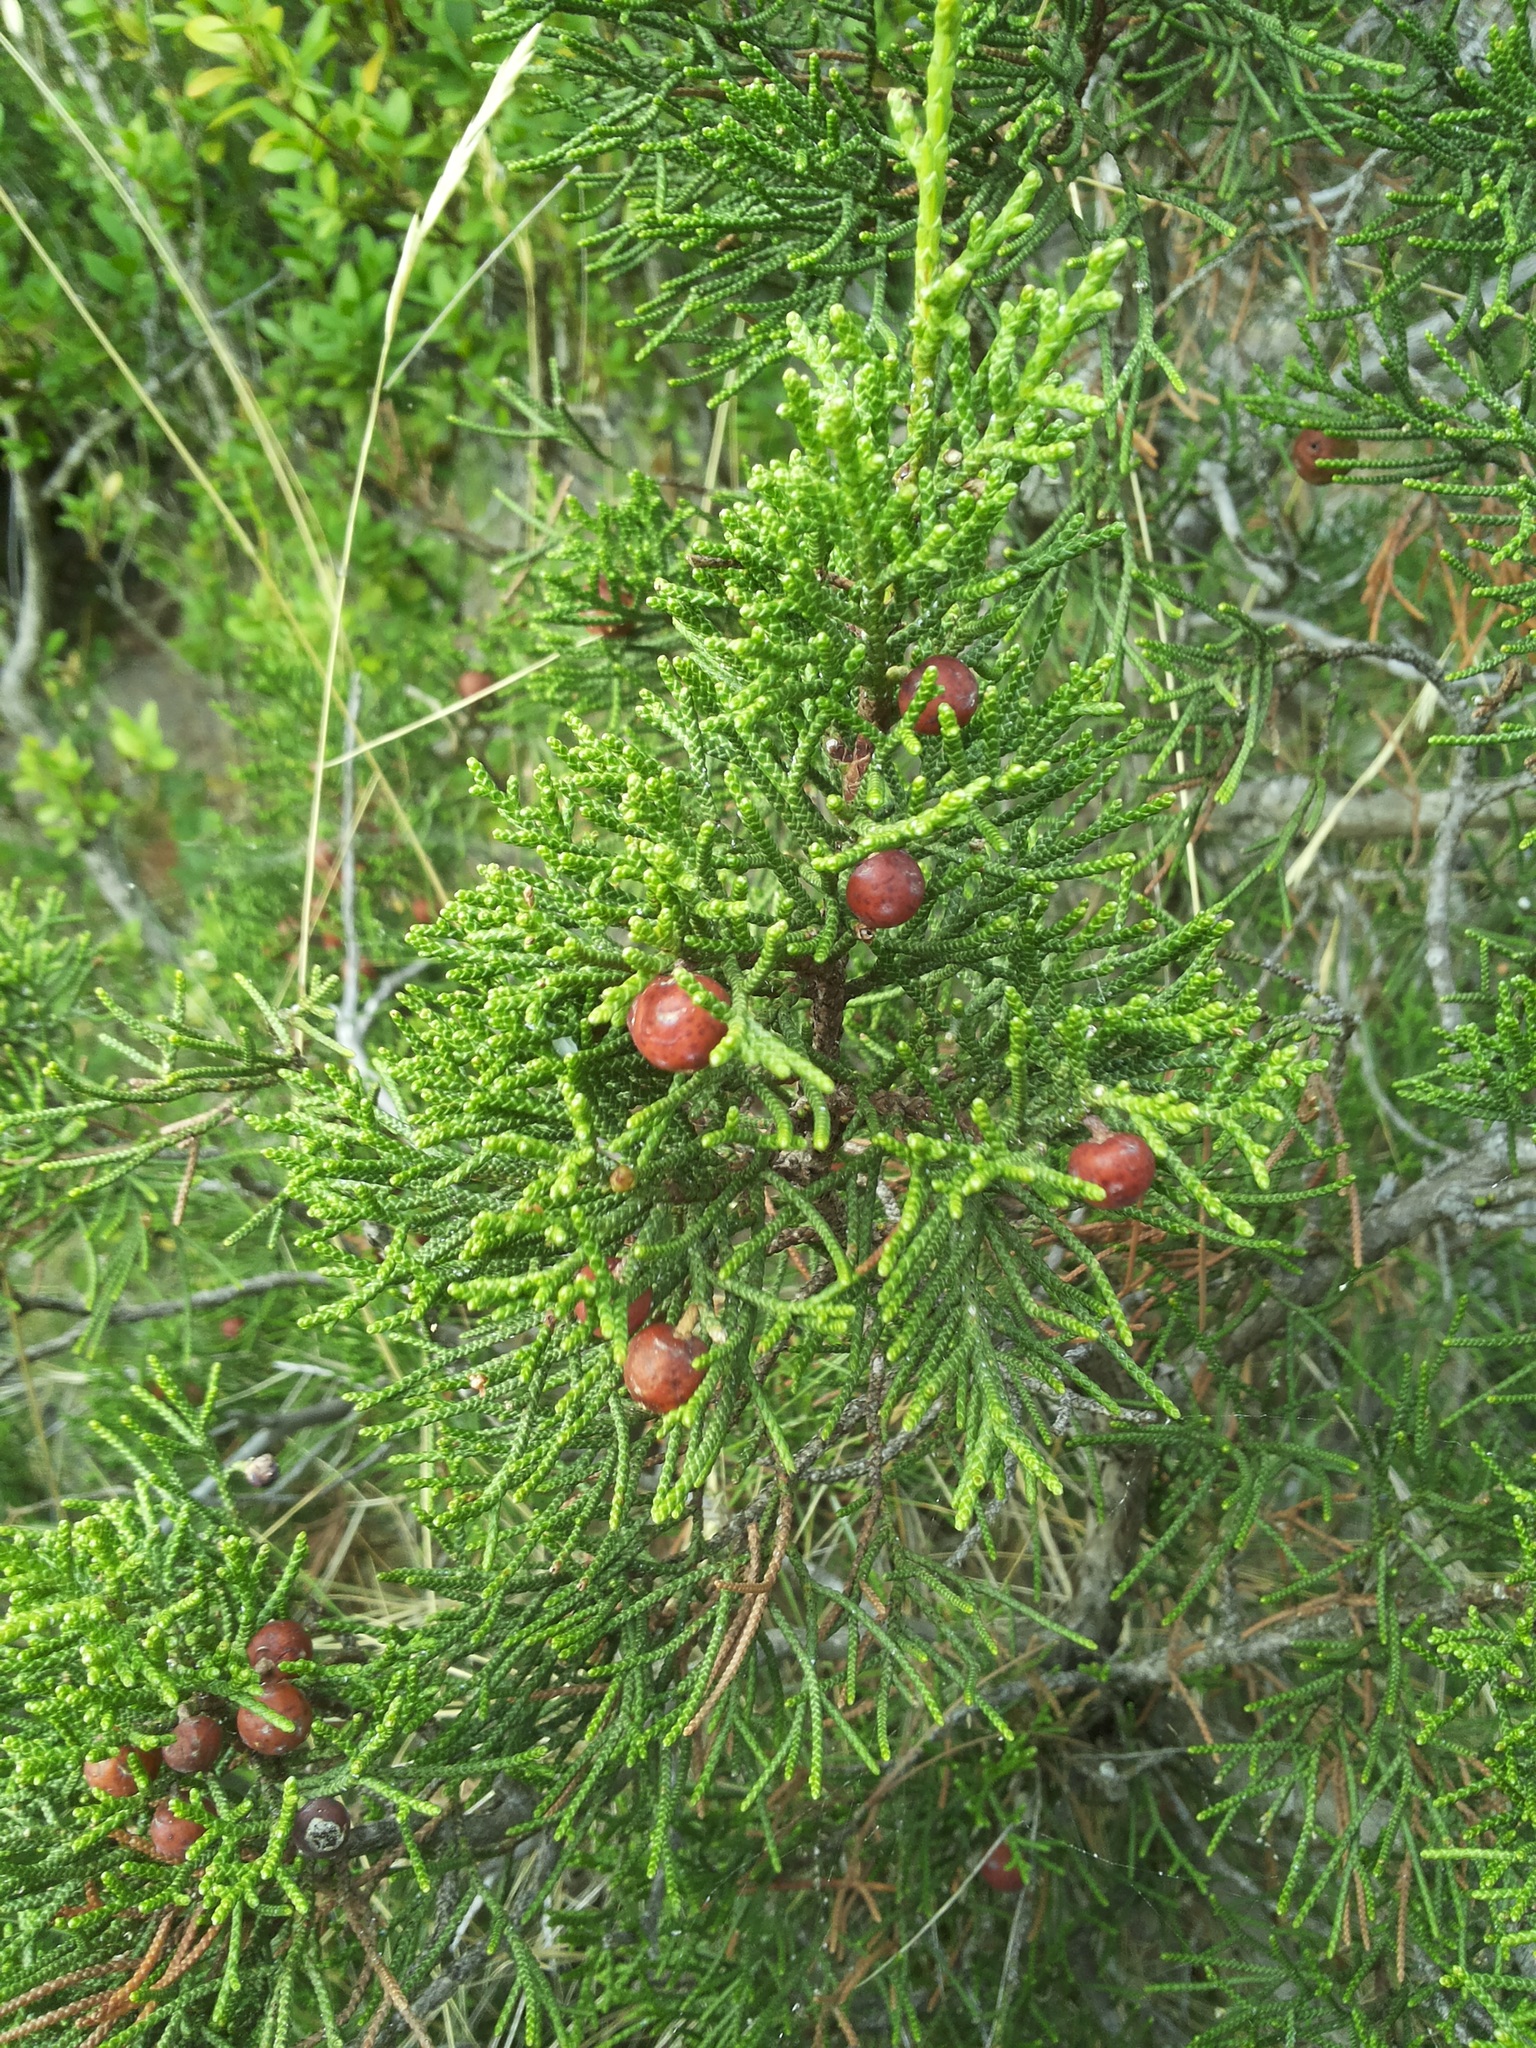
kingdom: Plantae
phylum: Tracheophyta
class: Pinopsida
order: Pinales
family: Cupressaceae
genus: Juniperus
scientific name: Juniperus phoenicea
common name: Phoenician juniper
